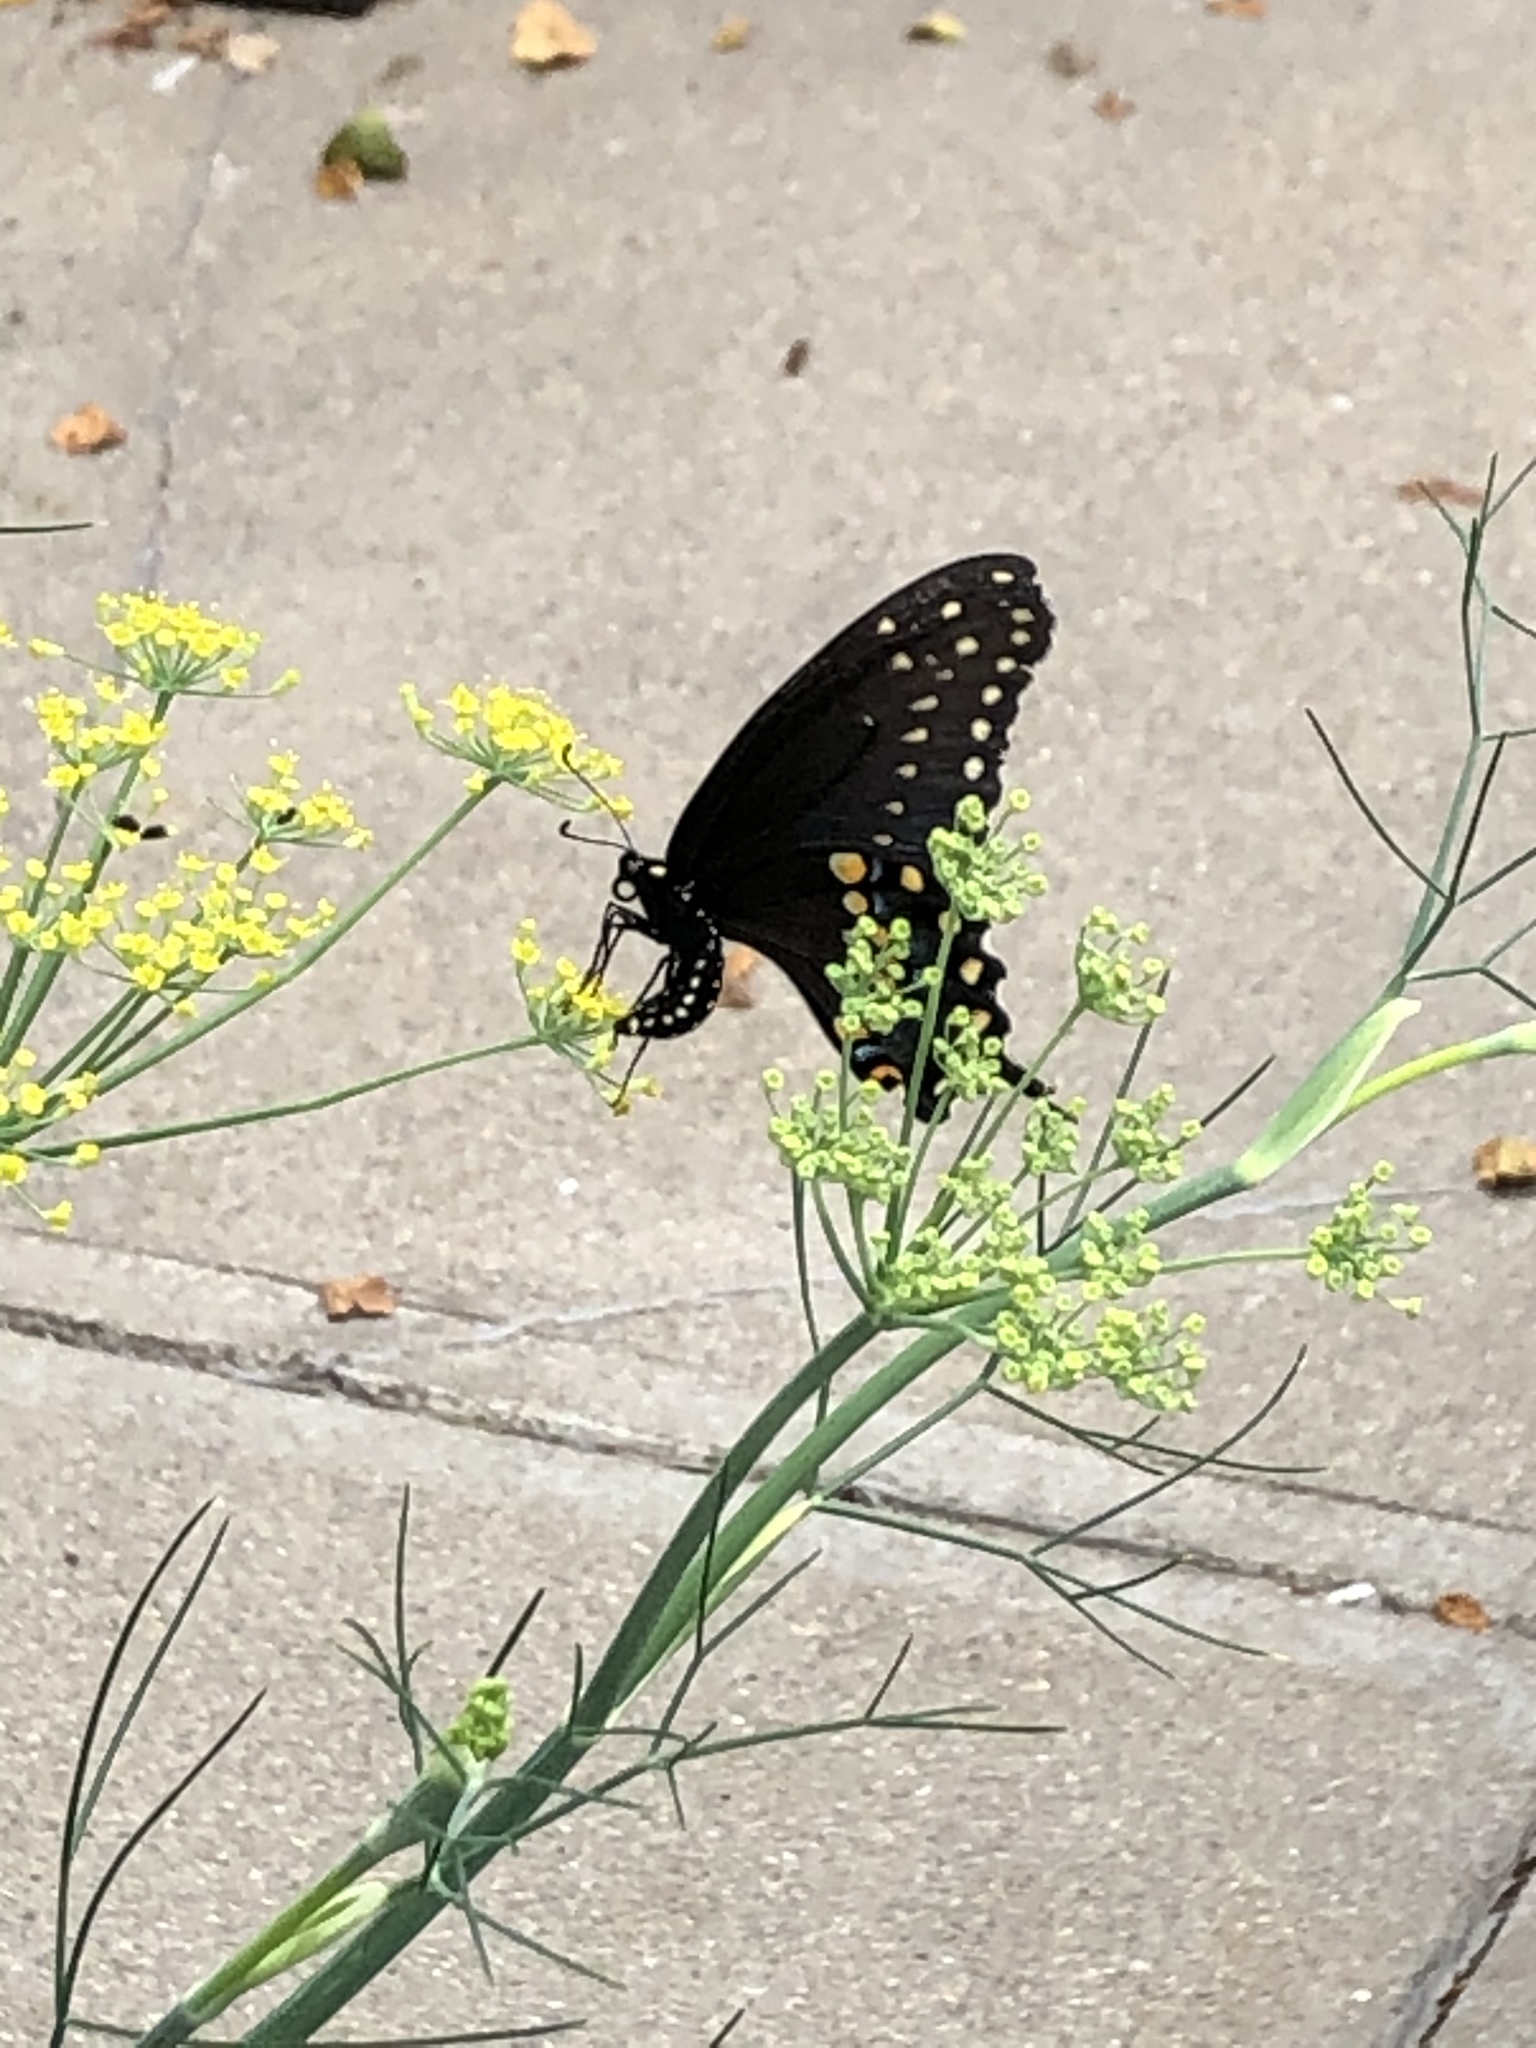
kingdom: Animalia
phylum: Arthropoda
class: Insecta
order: Lepidoptera
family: Papilionidae
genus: Papilio
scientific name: Papilio polyxenes
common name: Black swallowtail
